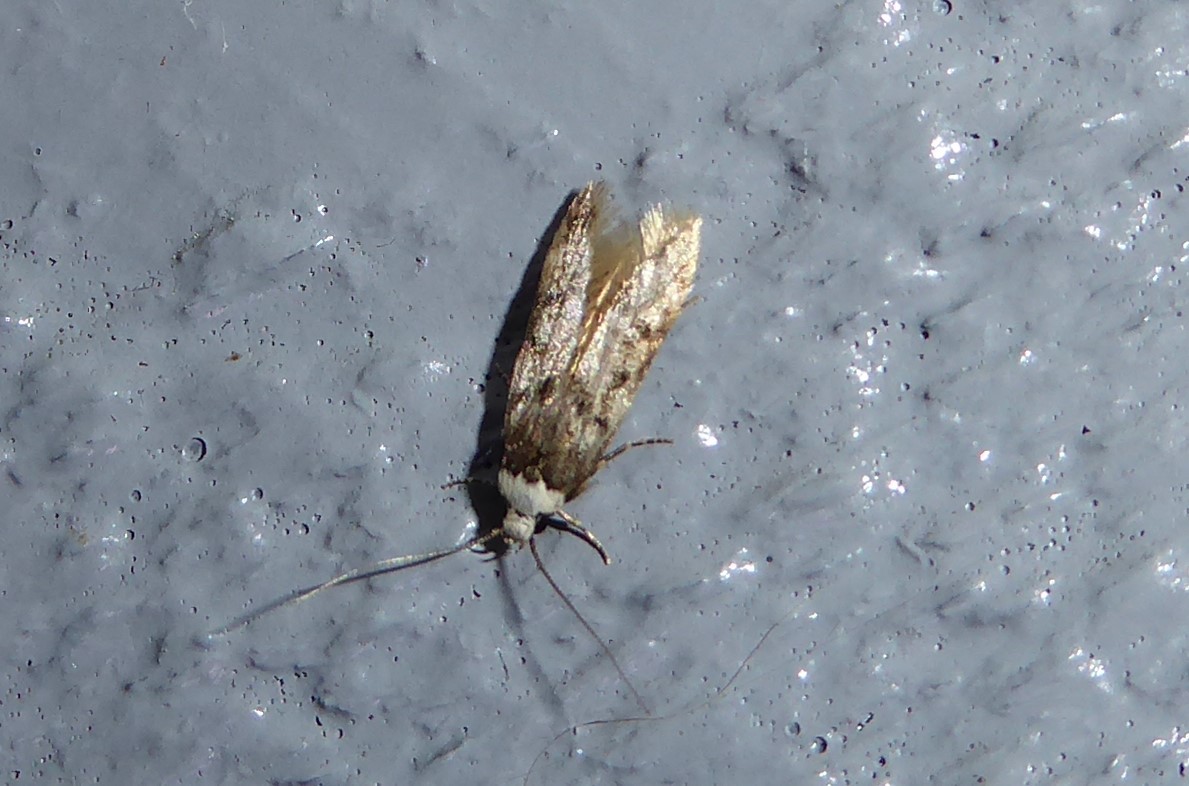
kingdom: Animalia
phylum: Arthropoda
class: Insecta
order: Lepidoptera
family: Oecophoridae
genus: Endrosis
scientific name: Endrosis sarcitrella
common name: White-shouldered house moth
